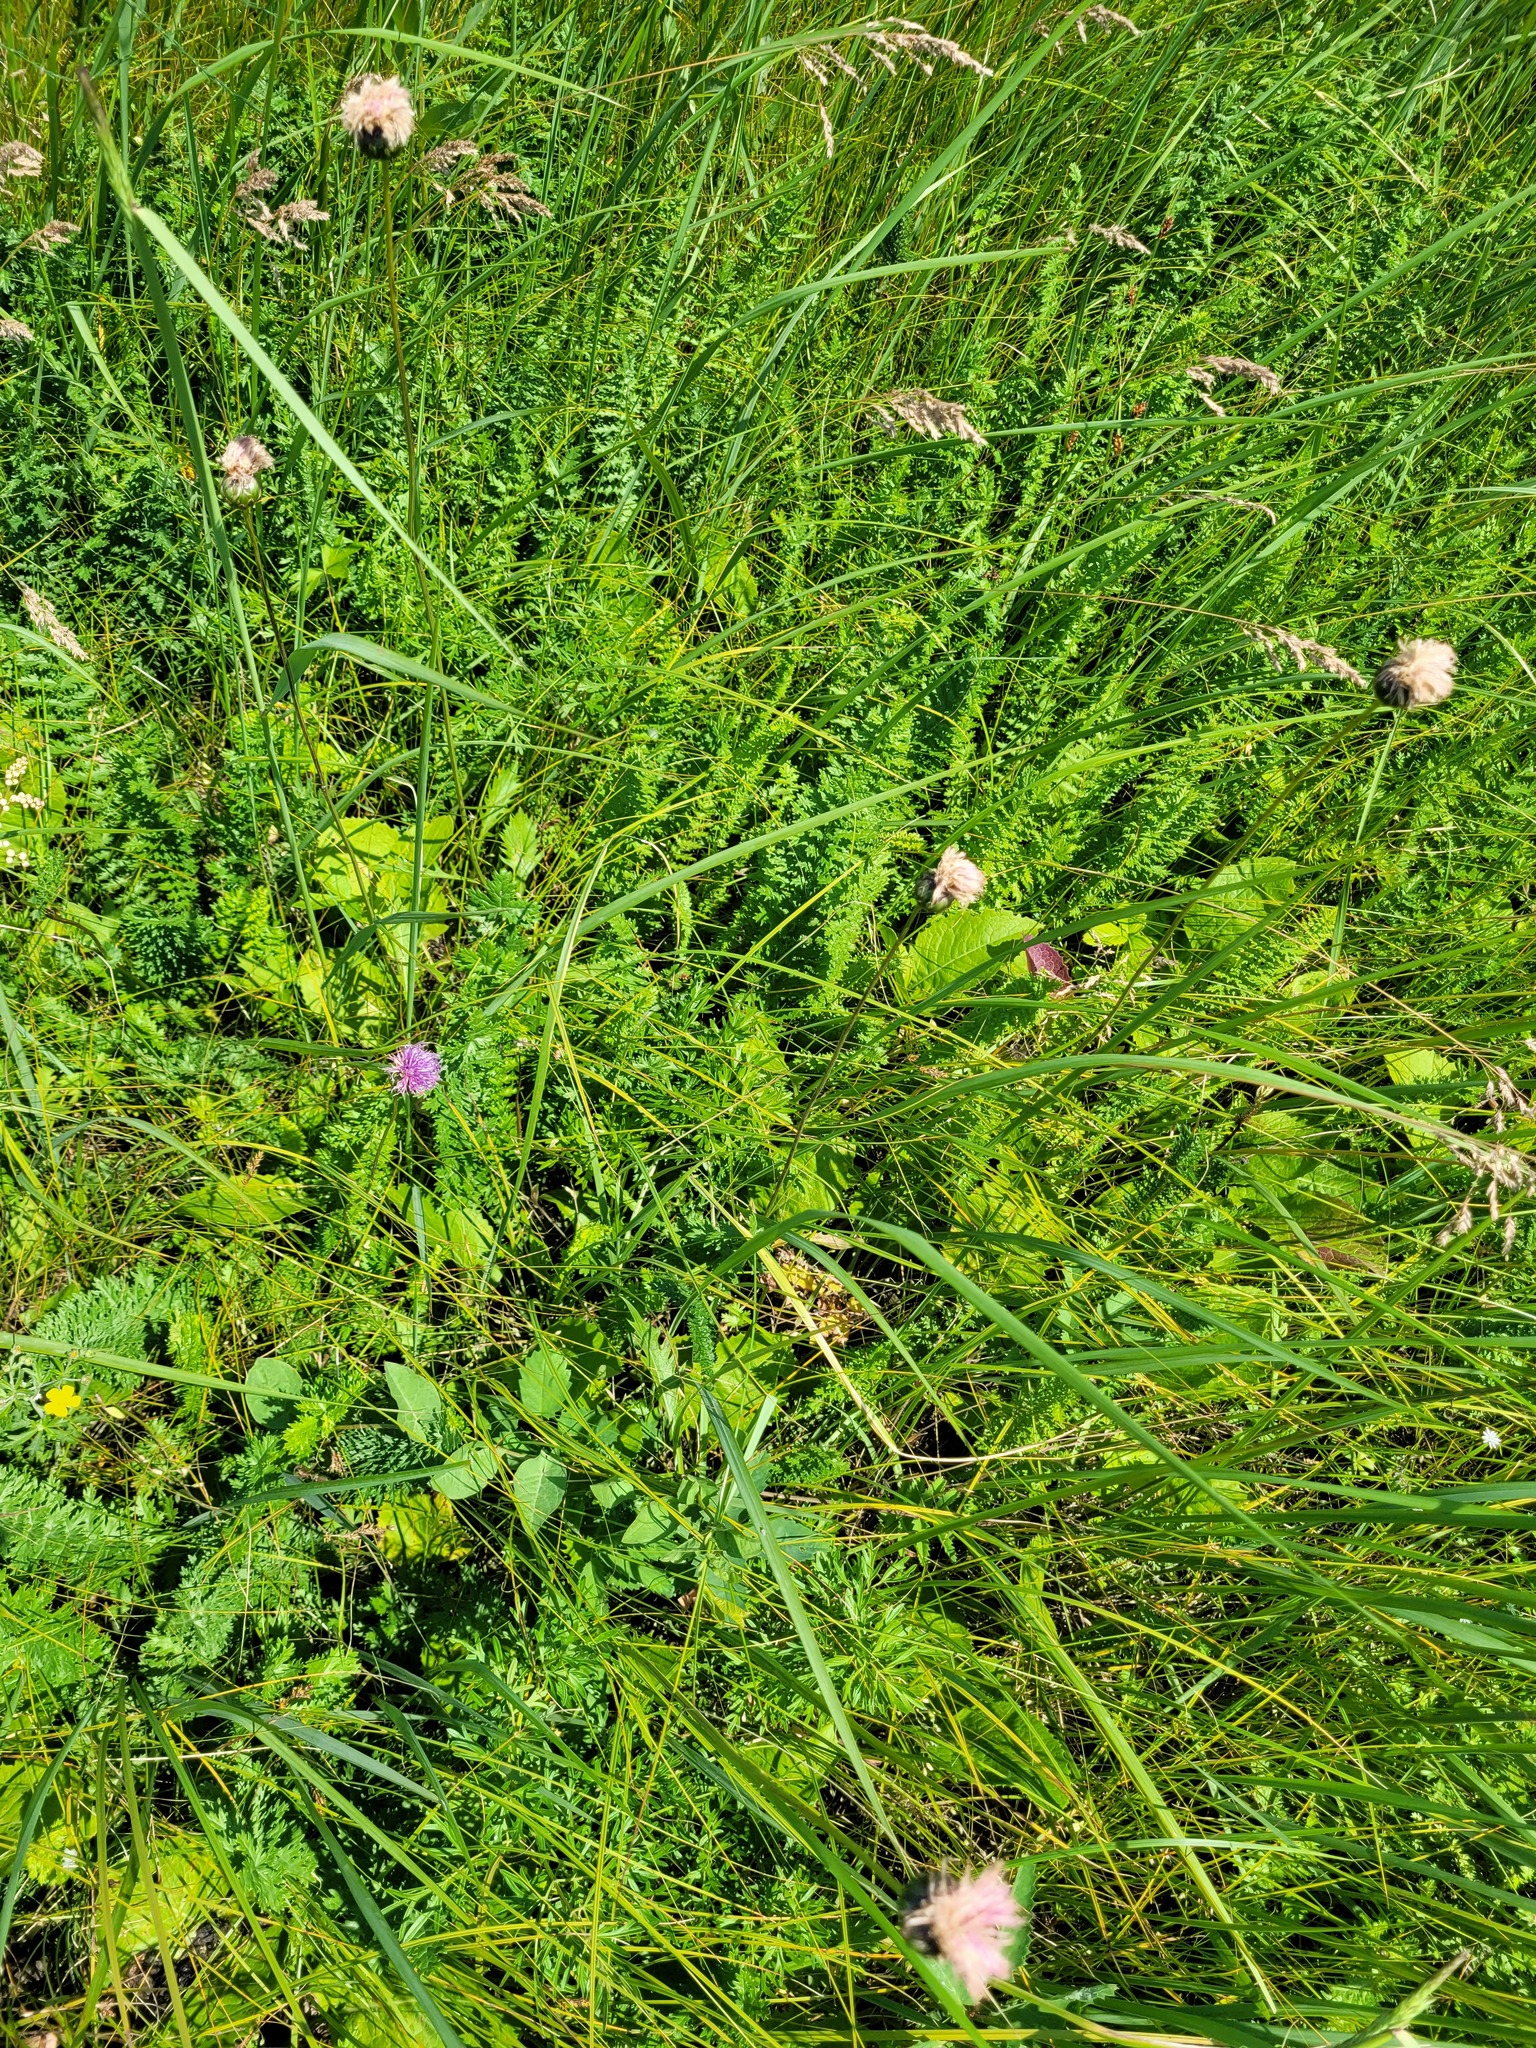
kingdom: Plantae
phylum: Tracheophyta
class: Magnoliopsida
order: Asterales
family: Asteraceae
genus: Klasea
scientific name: Klasea lycopifolia
